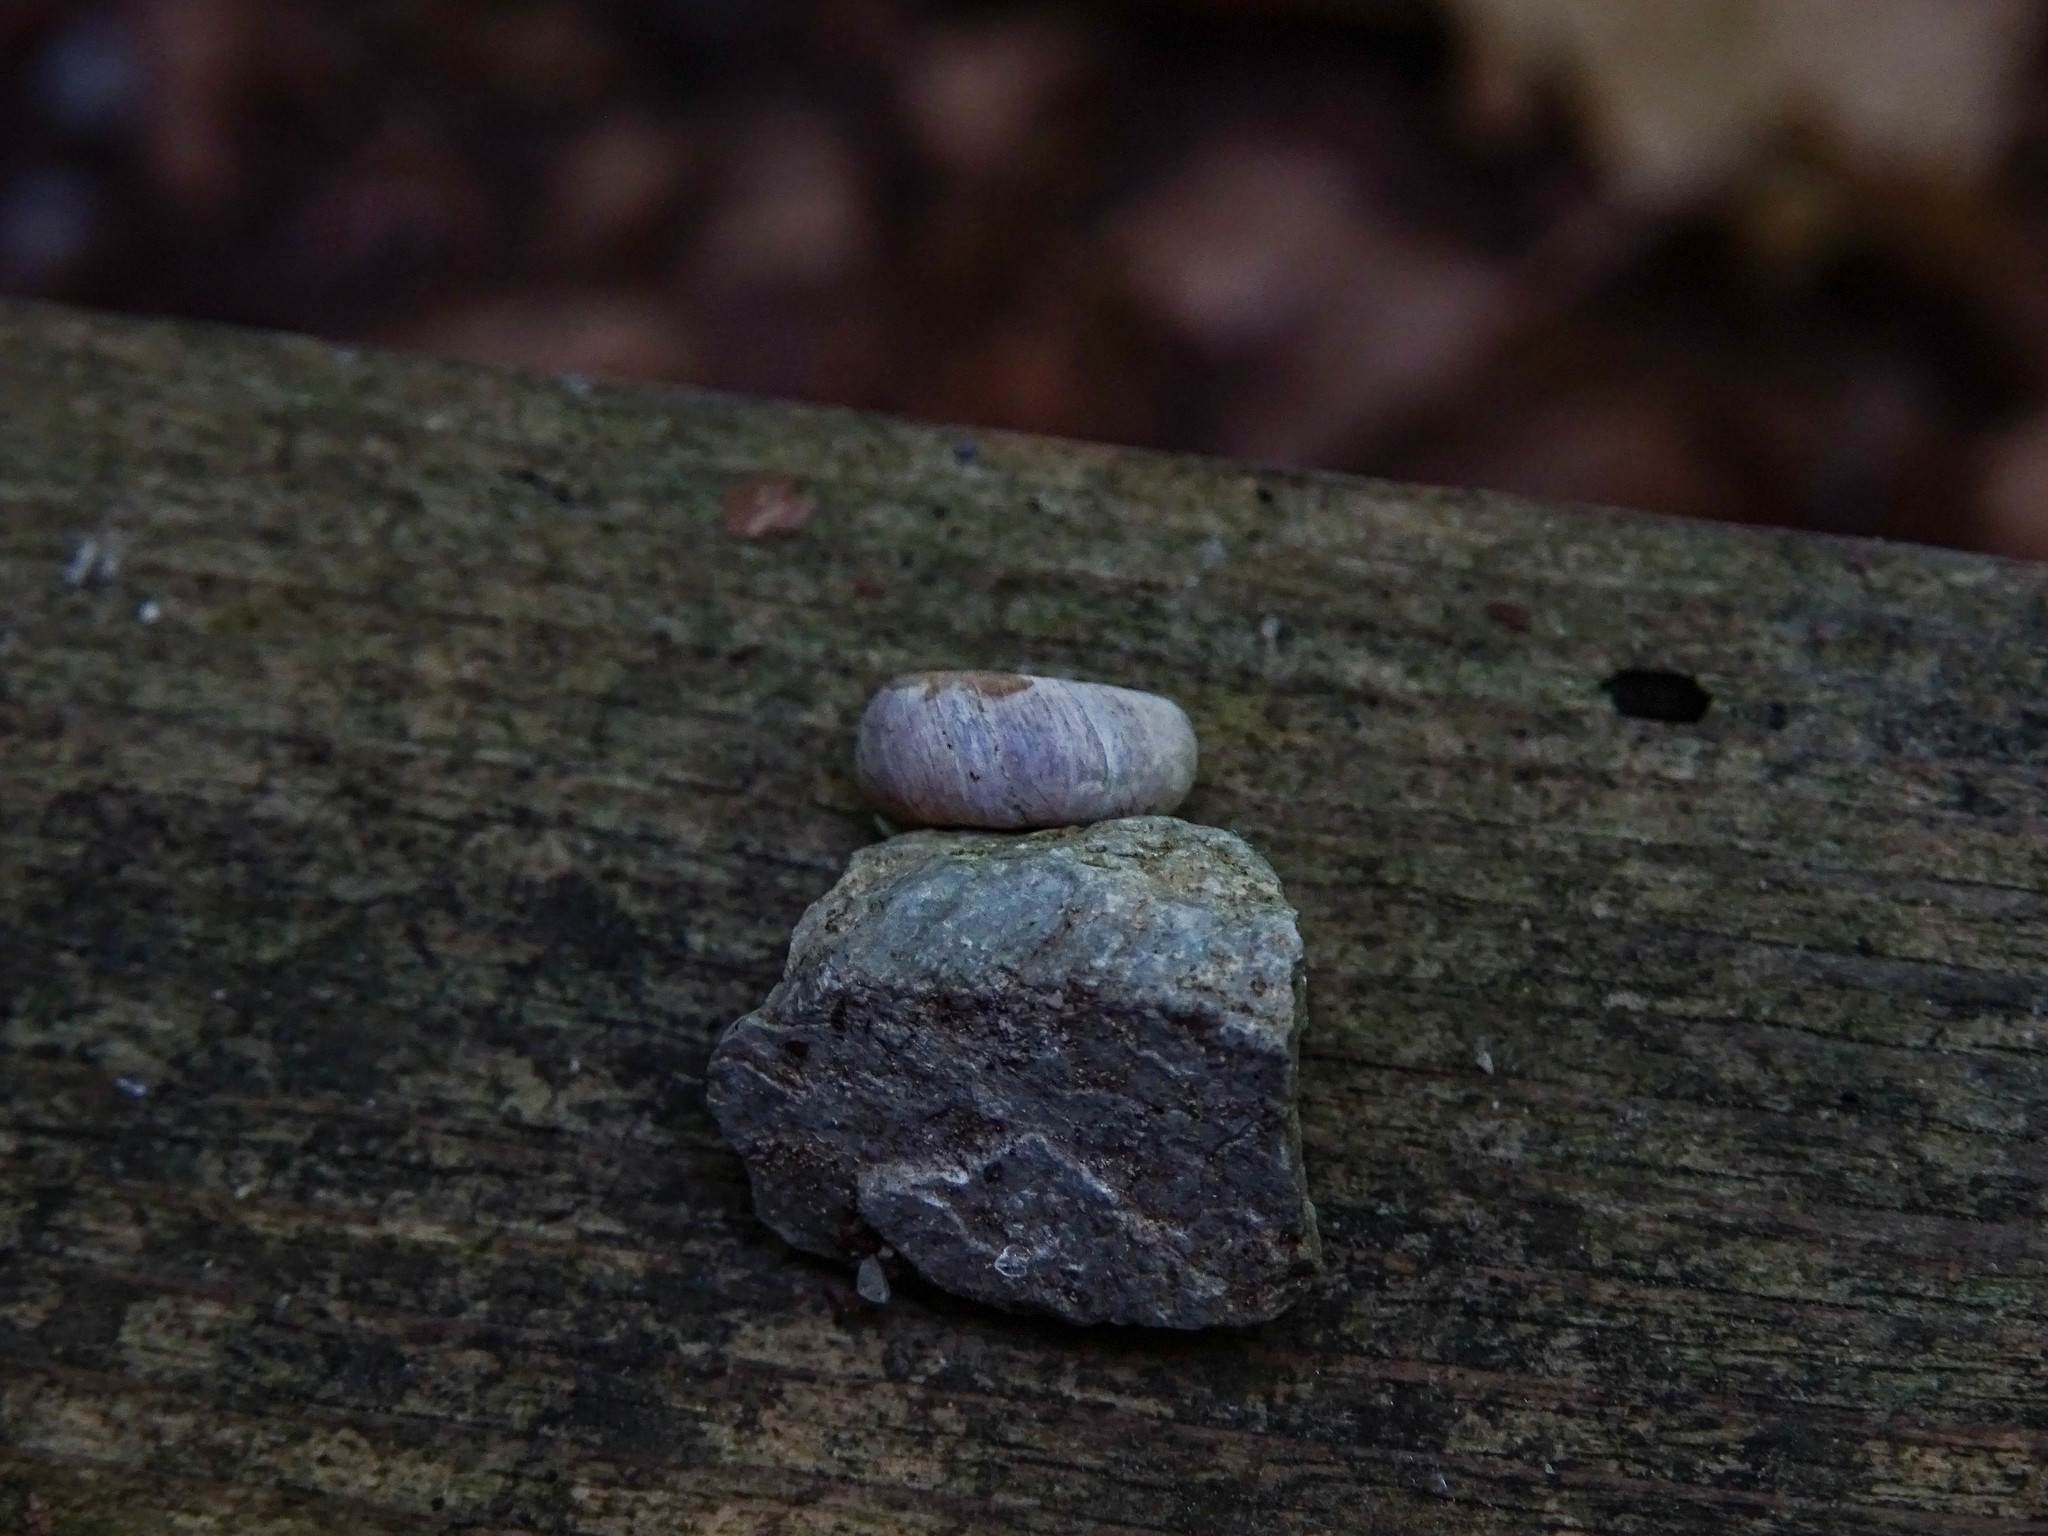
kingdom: Animalia
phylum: Mollusca
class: Gastropoda
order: Stylommatophora
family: Helicodontidae
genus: Helicodonta
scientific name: Helicodonta obvoluta
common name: Cheese snail
